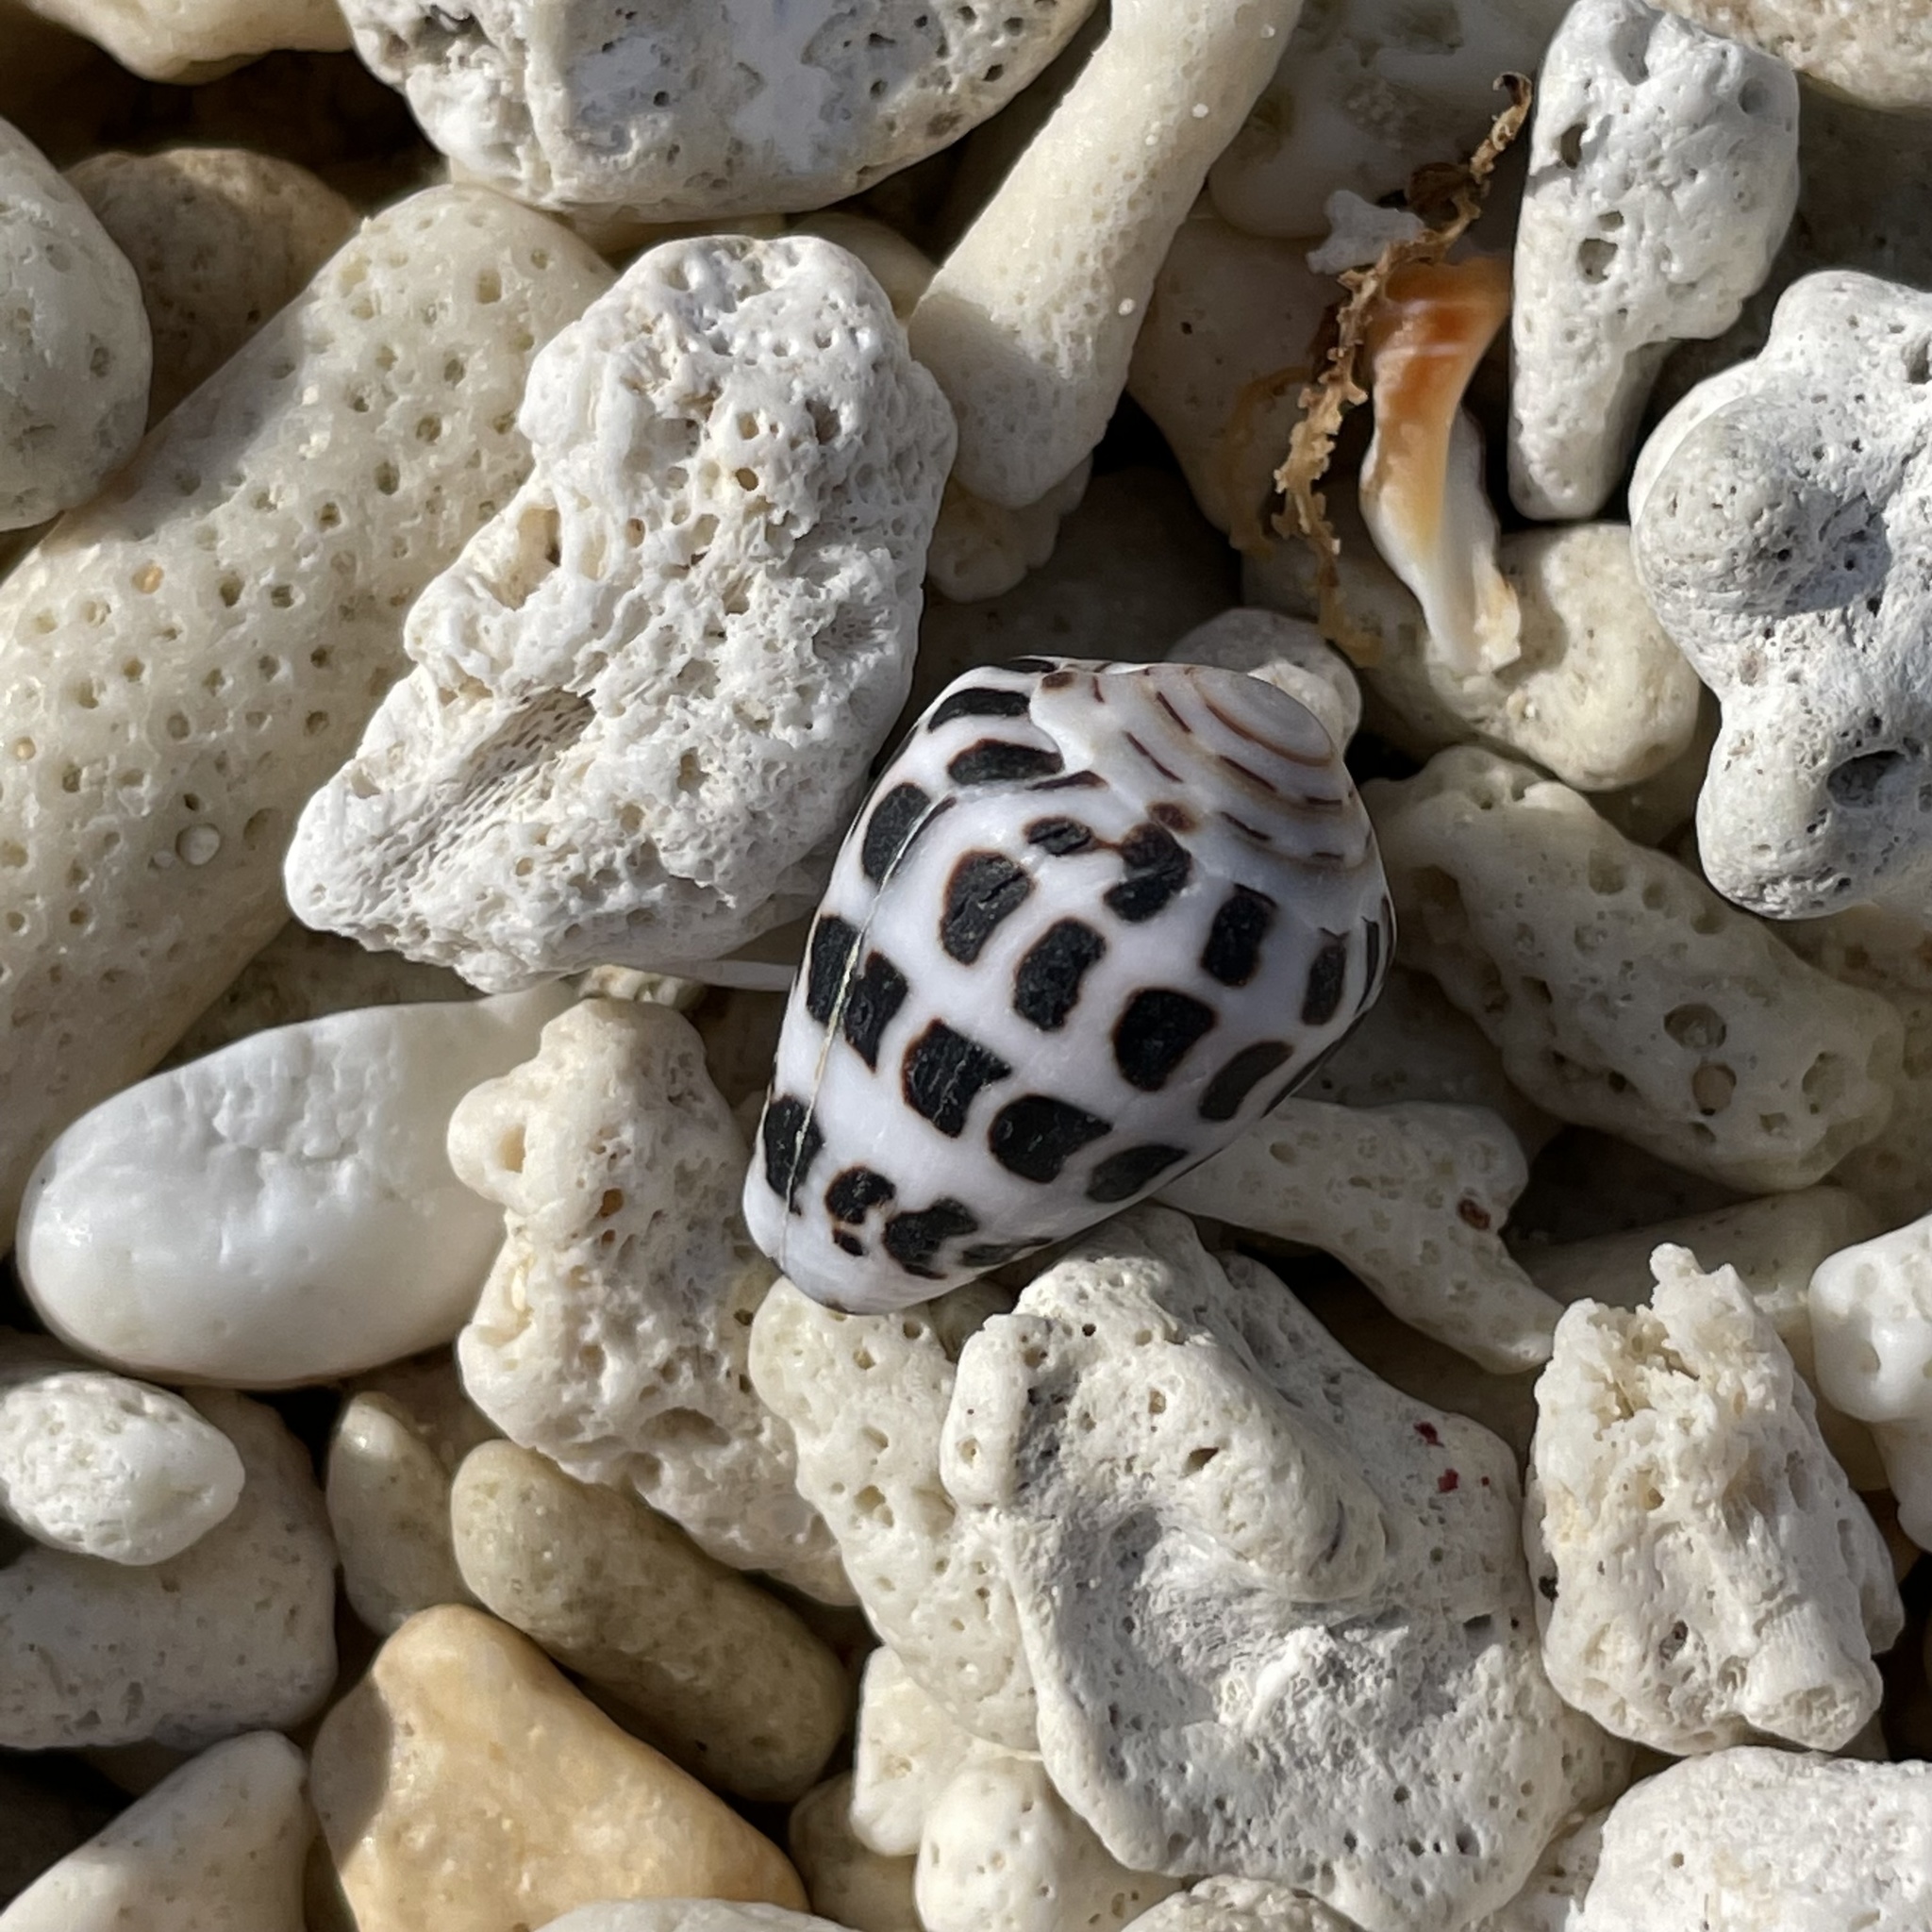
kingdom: Animalia
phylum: Mollusca
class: Gastropoda
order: Neogastropoda
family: Conidae
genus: Conus
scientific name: Conus ebraeus
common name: Hebrew cone
